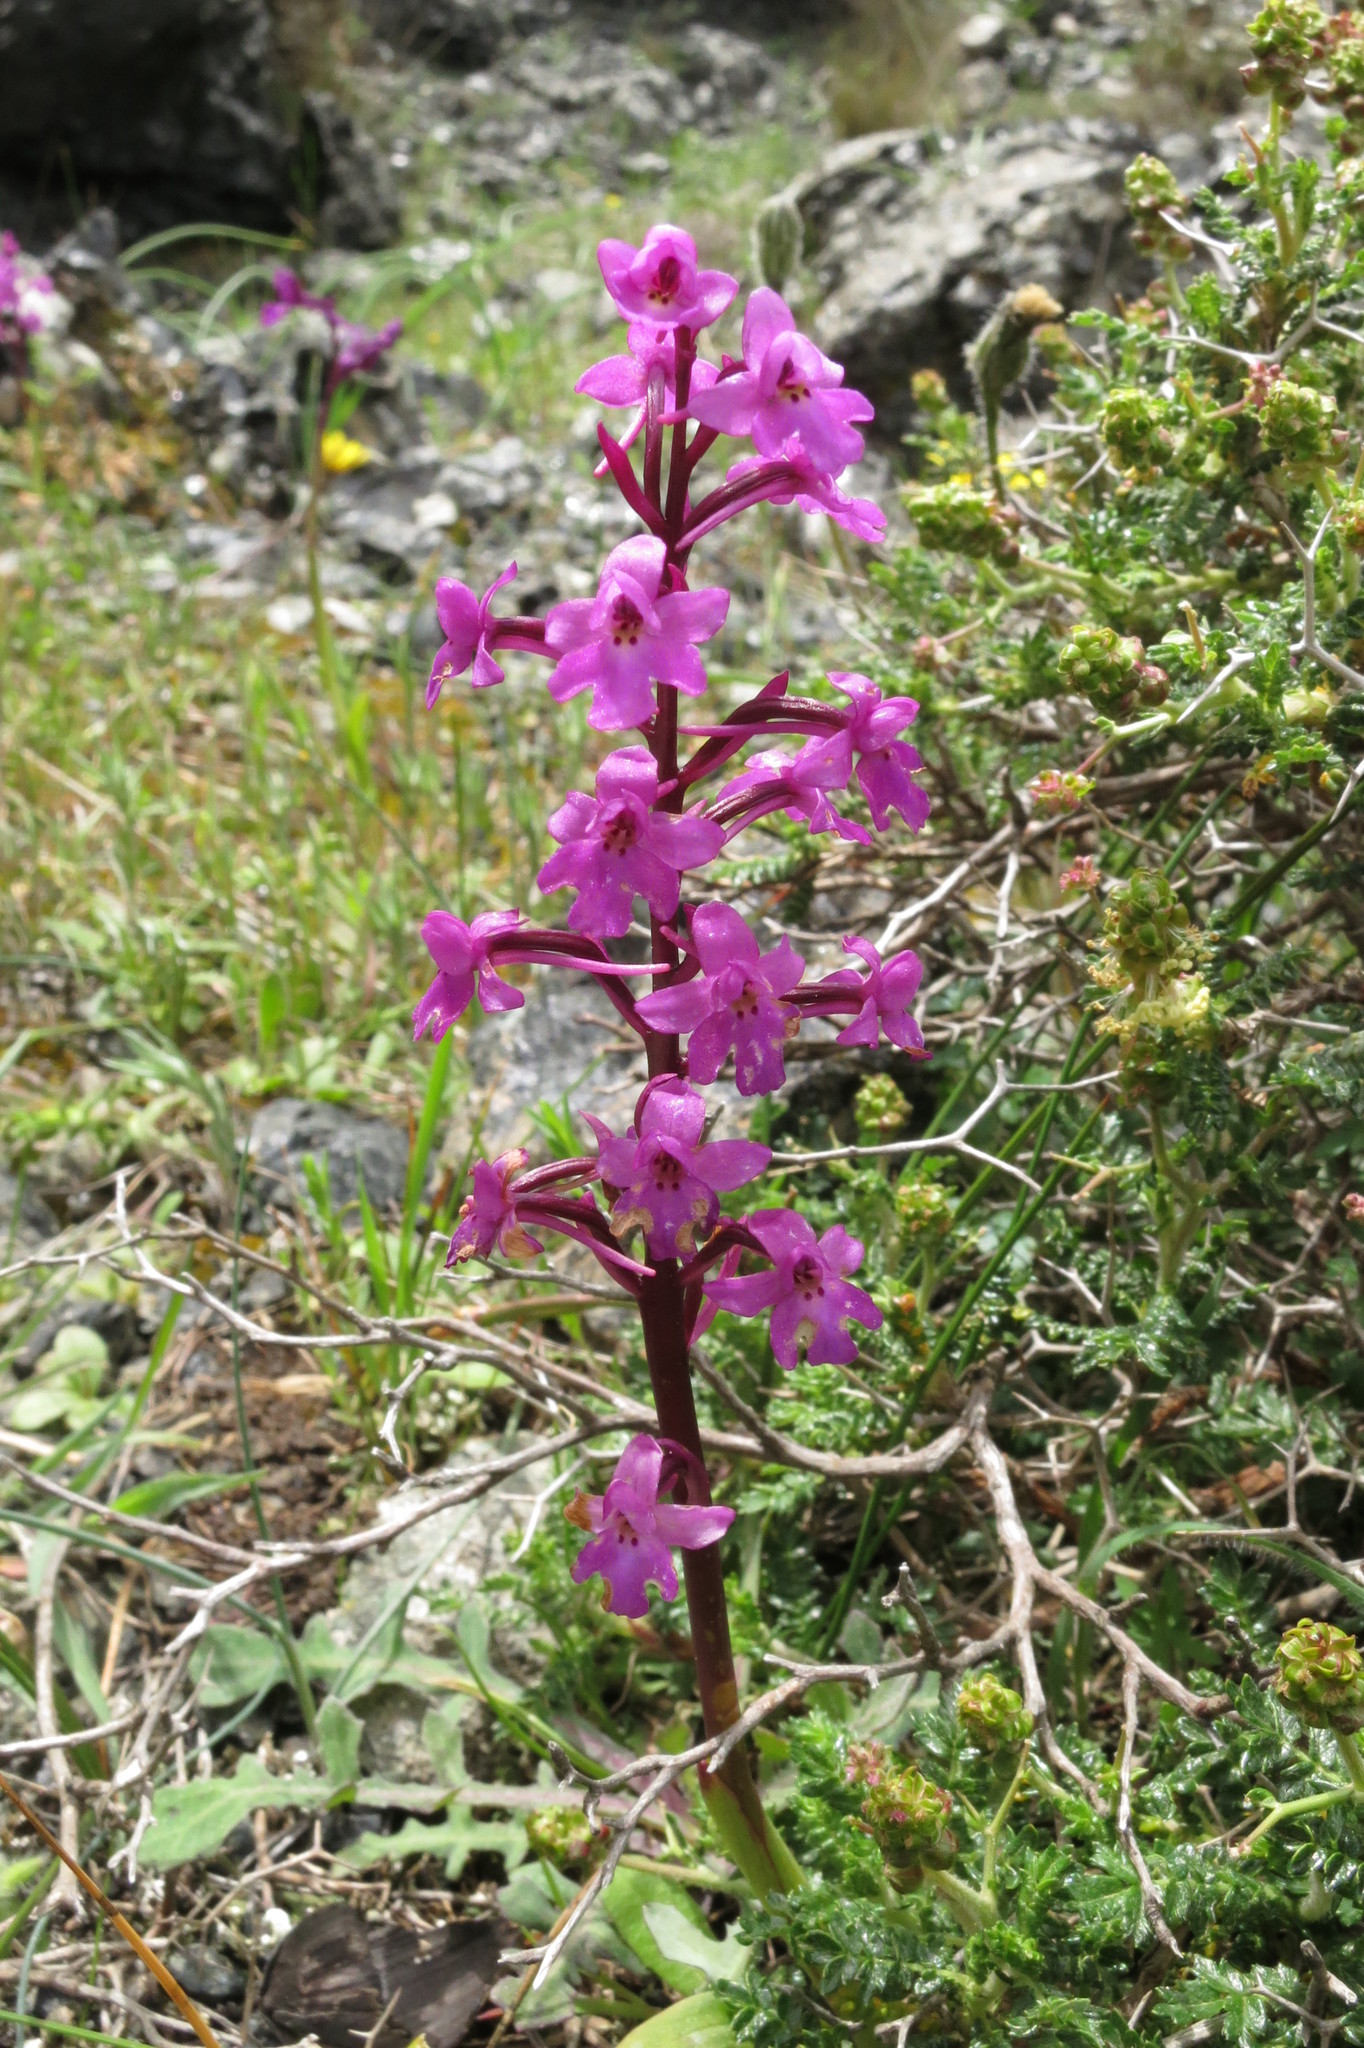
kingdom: Plantae
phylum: Tracheophyta
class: Liliopsida
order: Asparagales
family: Orchidaceae
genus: Orchis
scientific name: Orchis quadripunctata
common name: Four-spotted orchid
